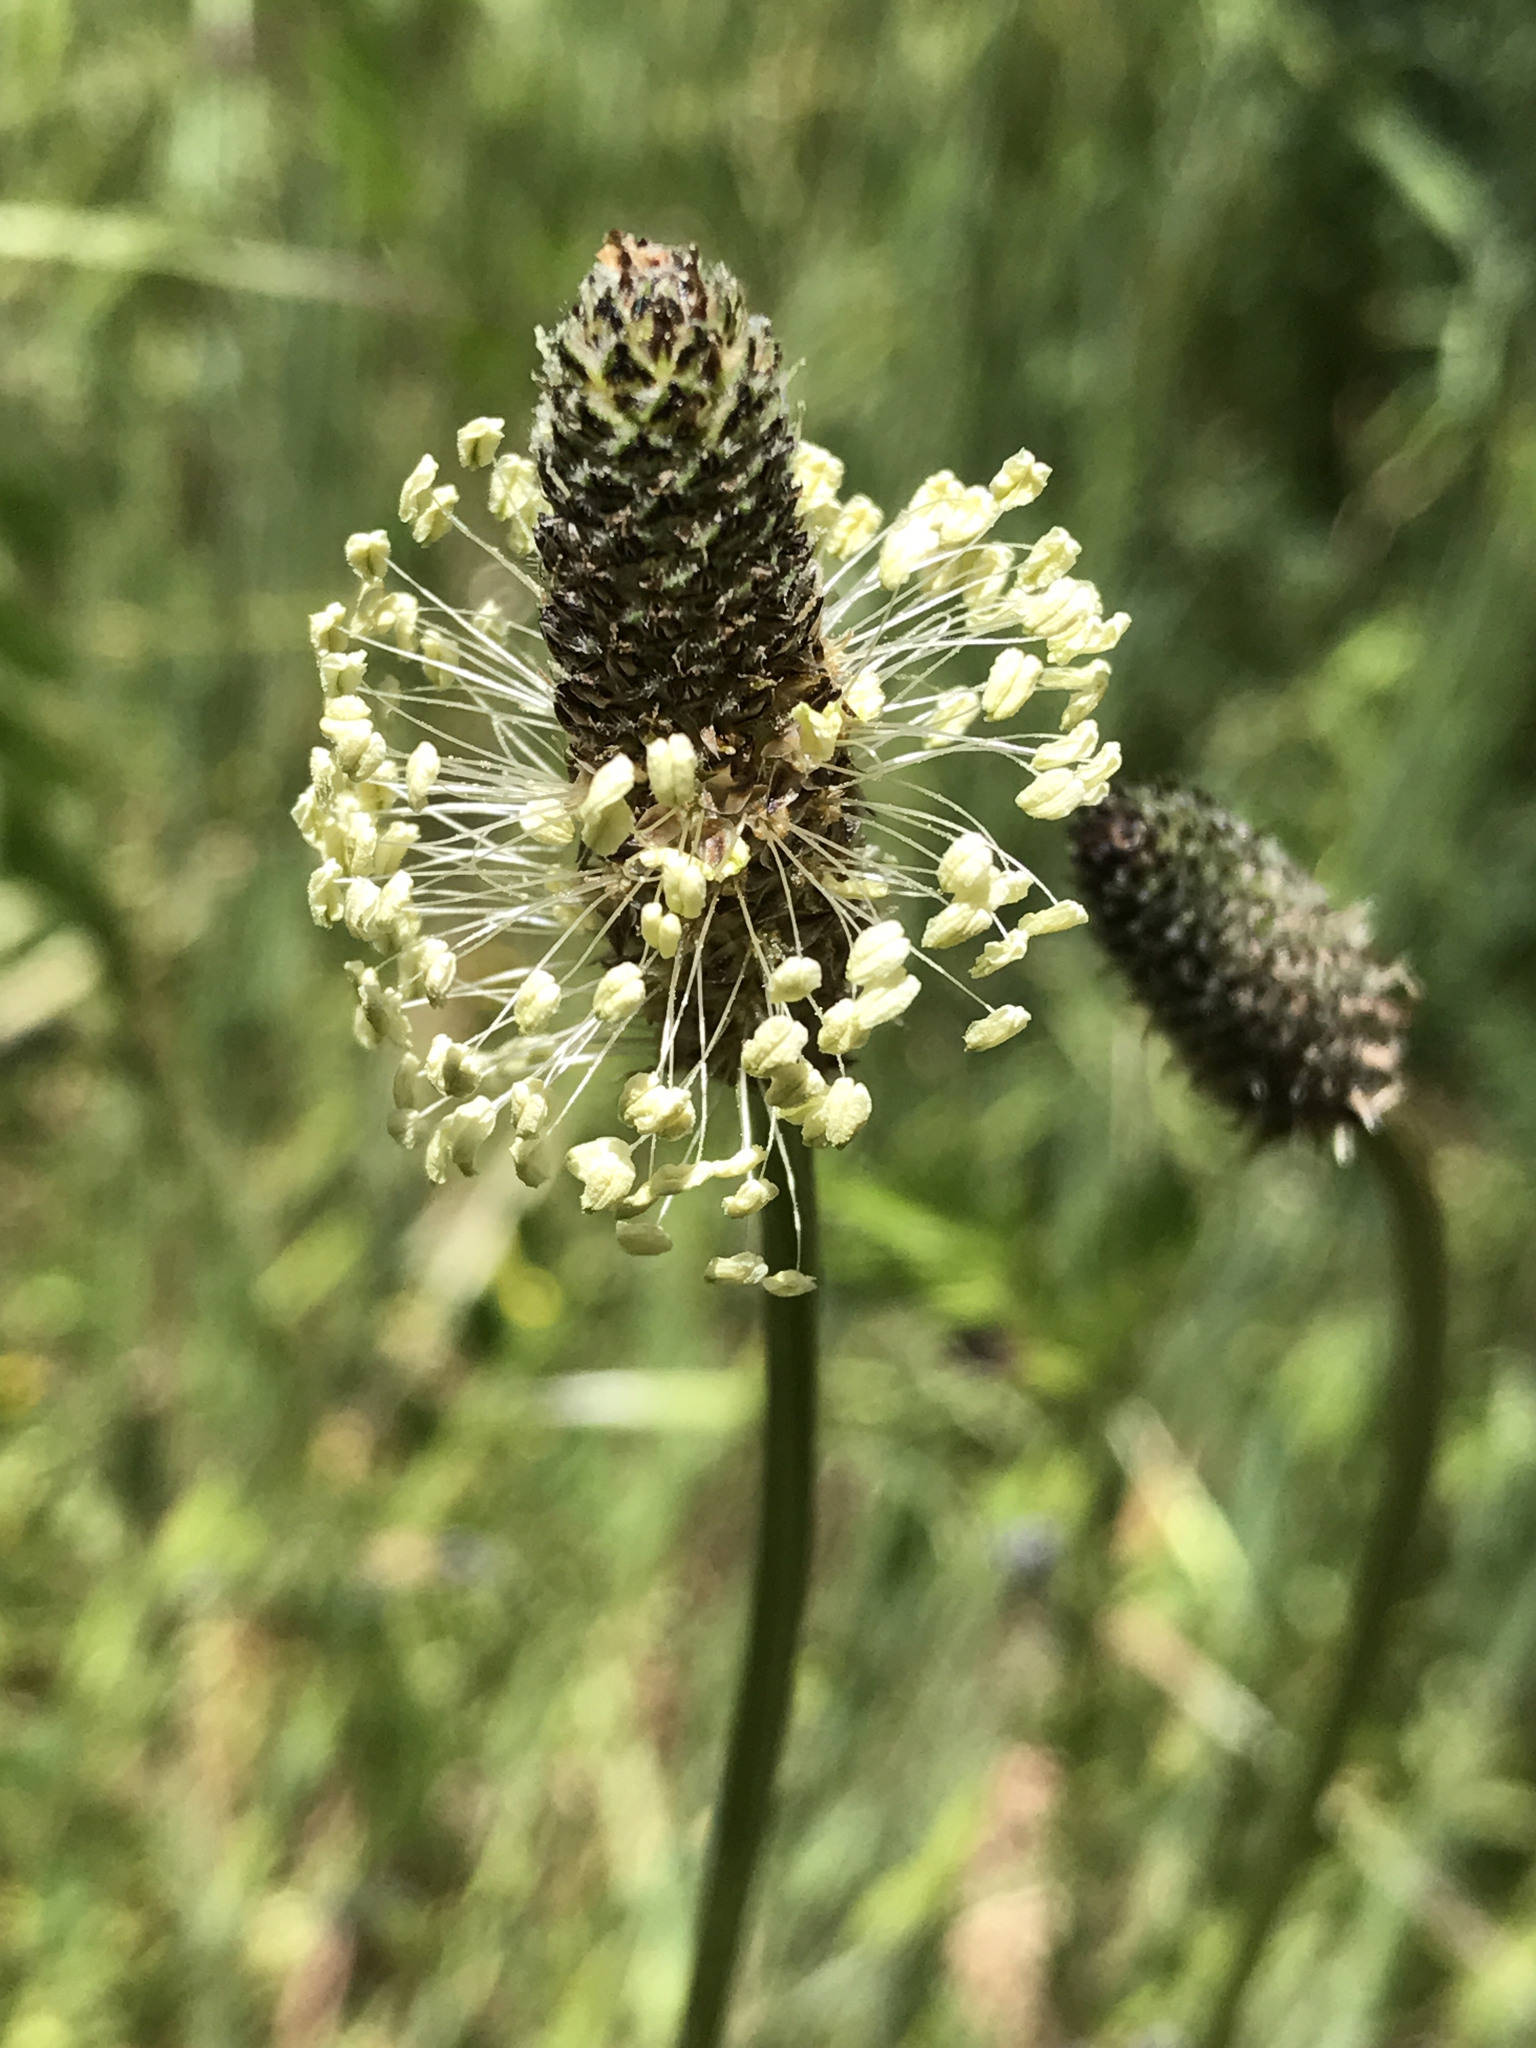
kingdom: Plantae
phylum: Tracheophyta
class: Magnoliopsida
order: Lamiales
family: Plantaginaceae
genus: Plantago
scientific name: Plantago lanceolata
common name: Ribwort plantain
